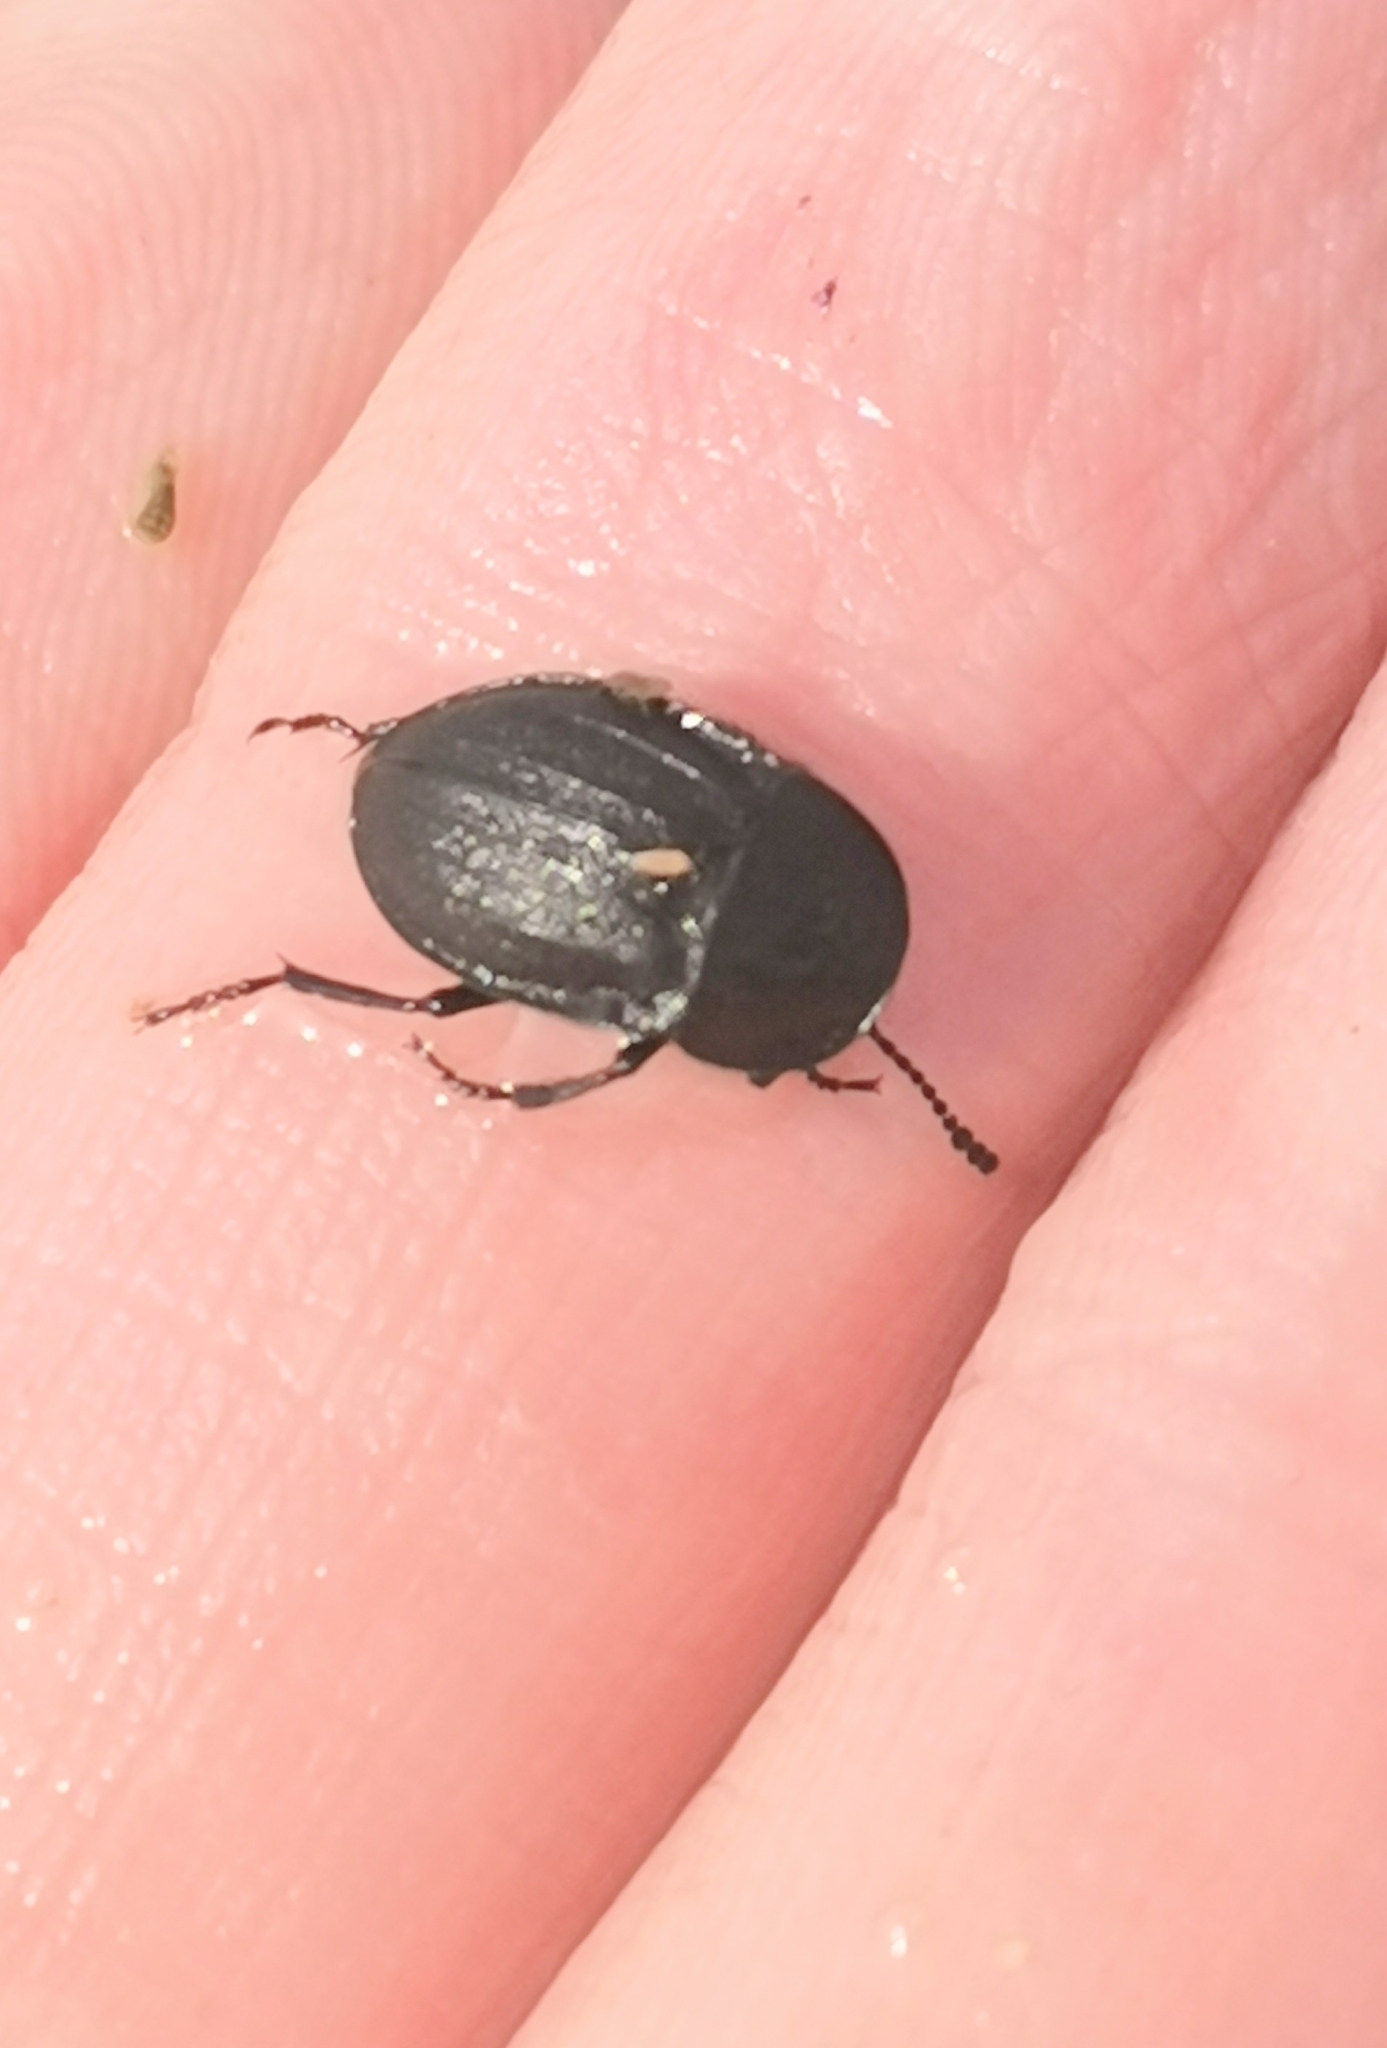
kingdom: Animalia
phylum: Arthropoda
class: Insecta
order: Coleoptera
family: Staphylinidae
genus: Silpha
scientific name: Silpha atrata
